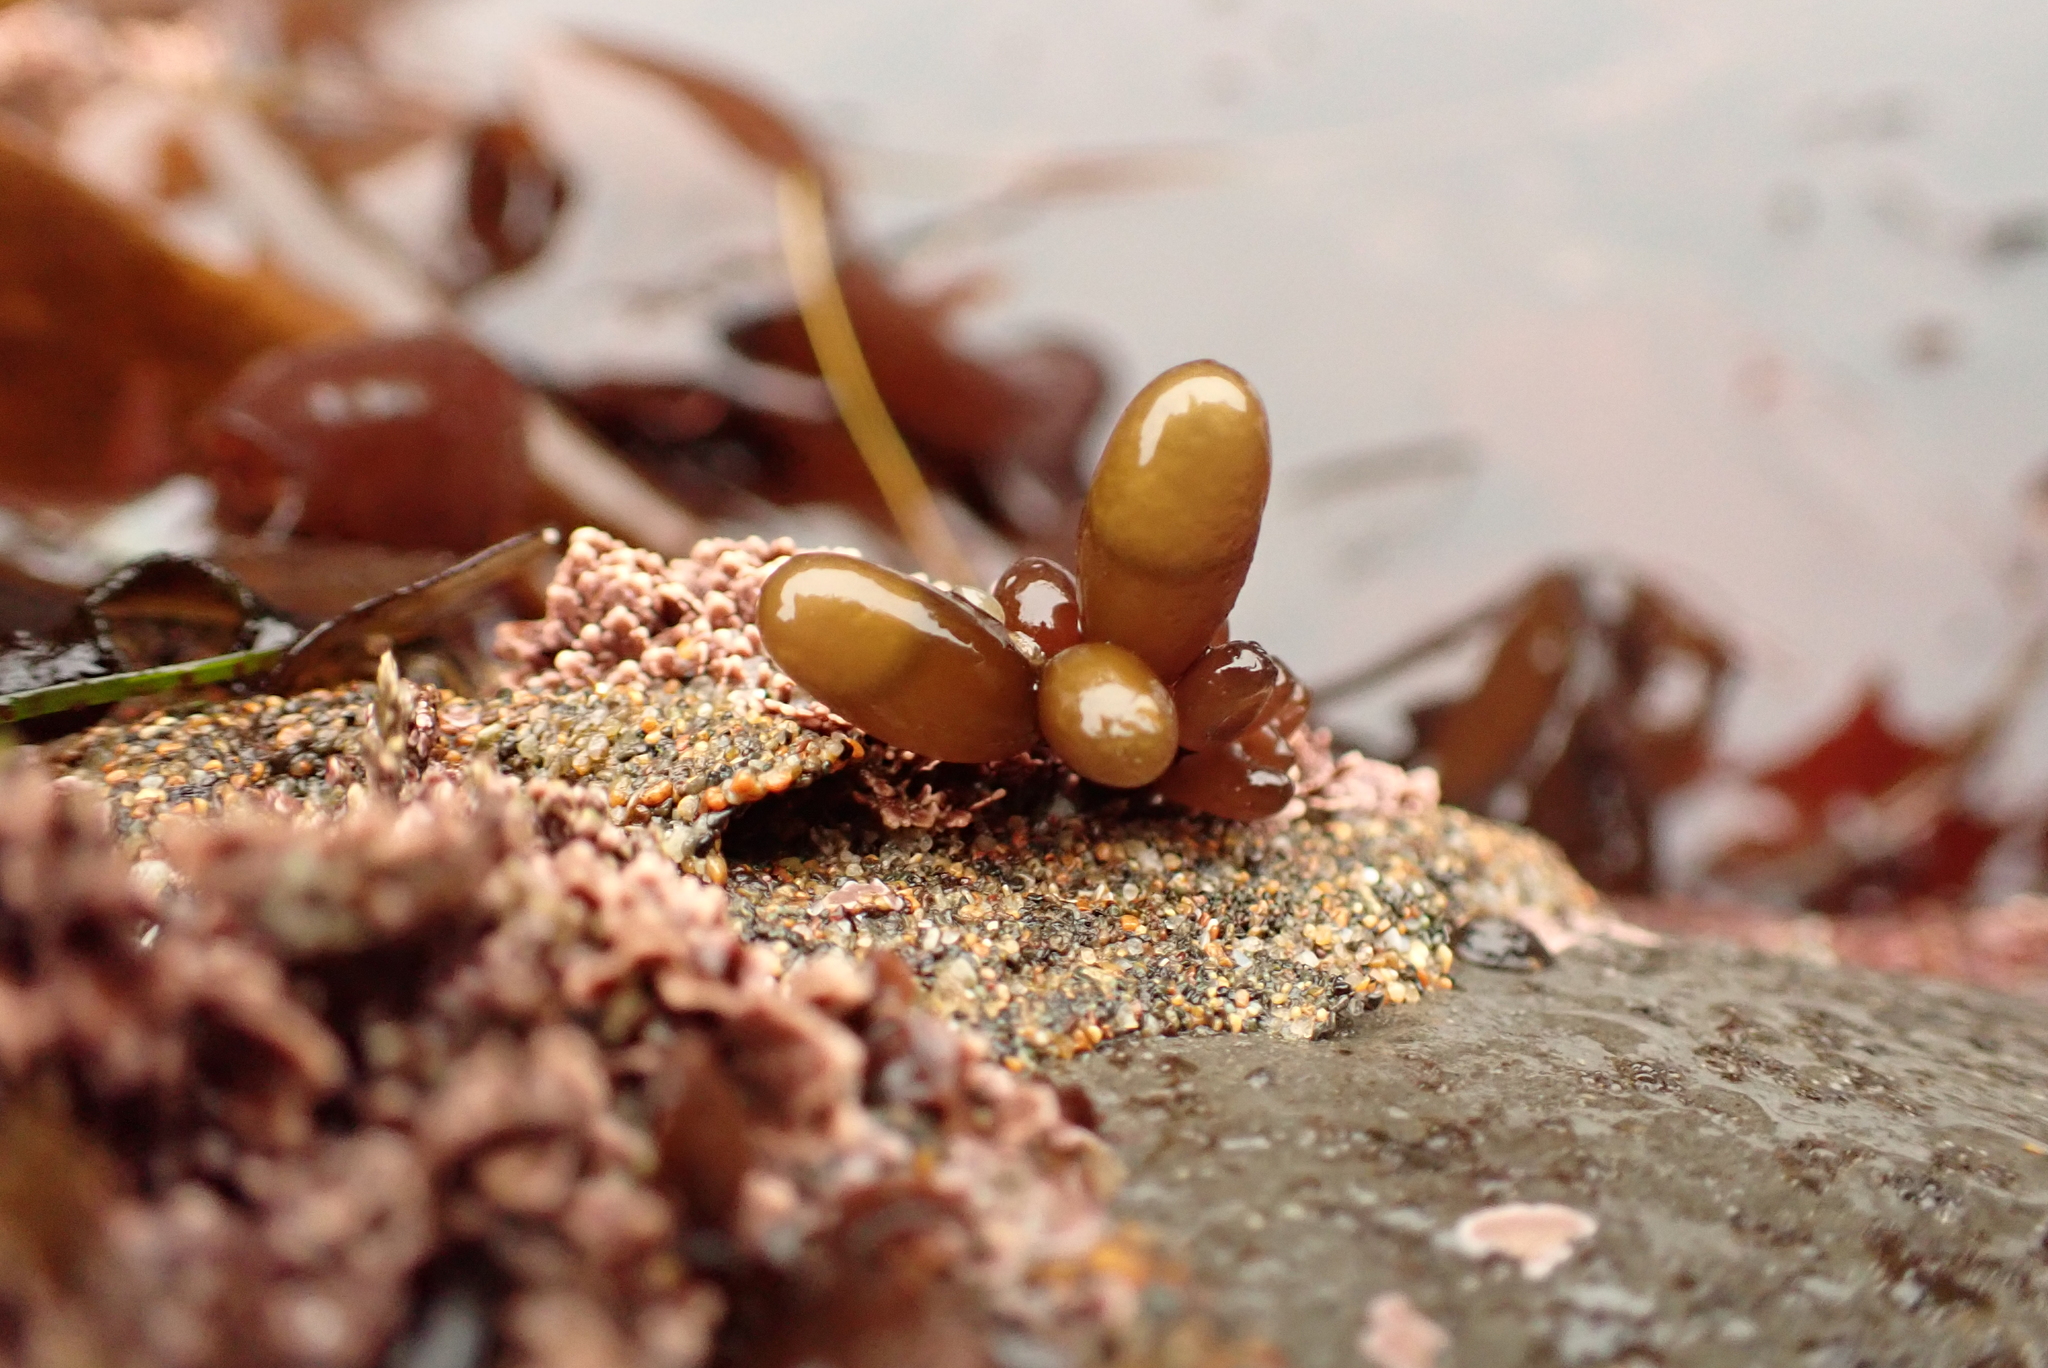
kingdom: Plantae
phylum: Rhodophyta
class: Florideophyceae
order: Palmariales
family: Palmariaceae
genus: Halosaccion
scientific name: Halosaccion glandiforme
